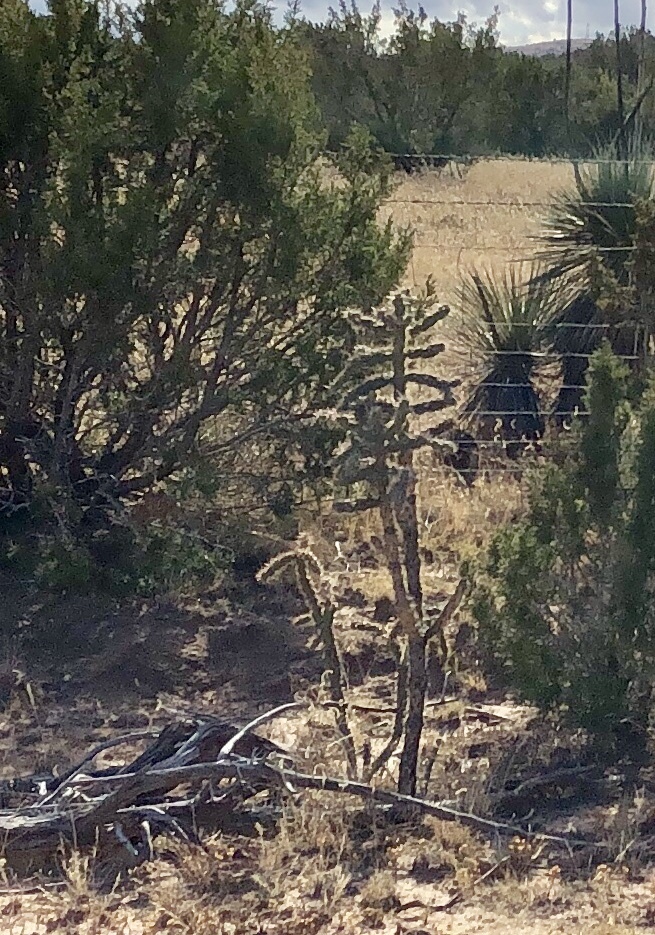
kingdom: Plantae
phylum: Tracheophyta
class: Magnoliopsida
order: Caryophyllales
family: Cactaceae
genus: Cylindropuntia
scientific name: Cylindropuntia imbricata
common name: Candelabrum cactus
